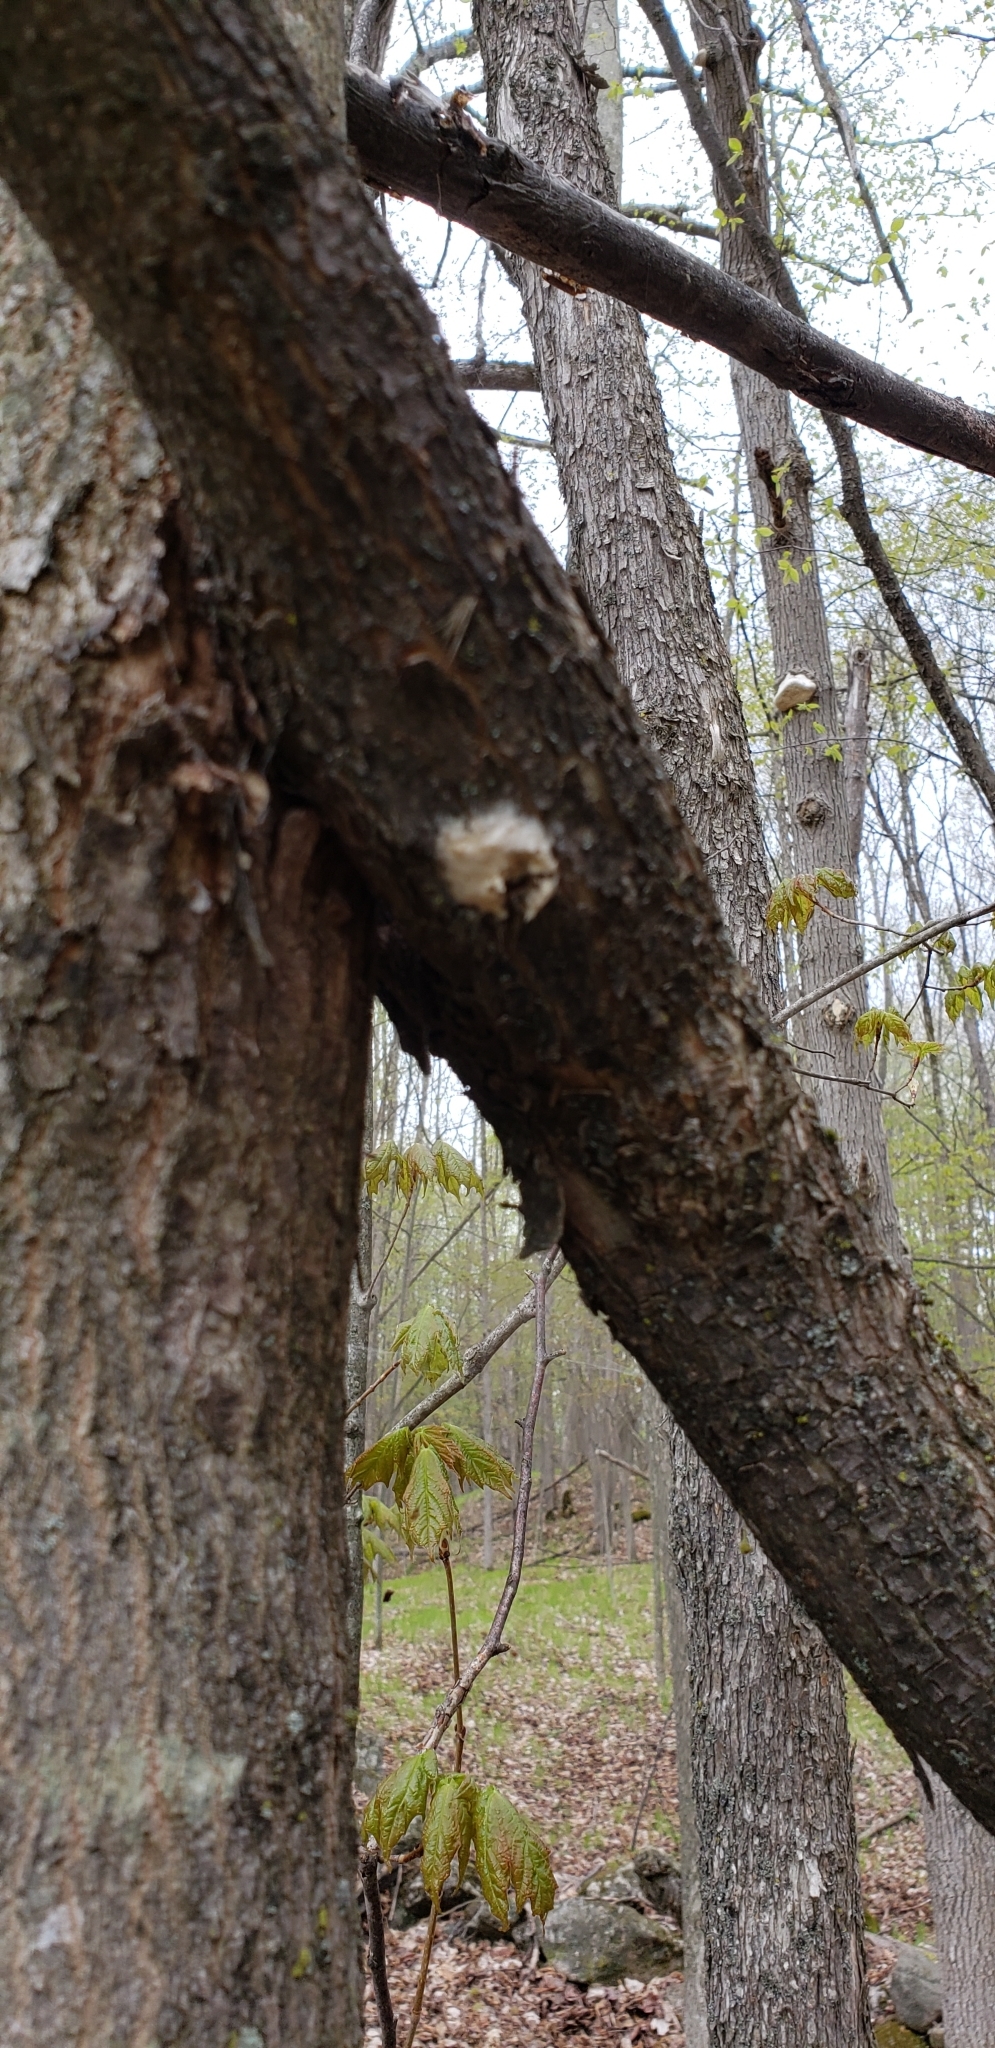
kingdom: Animalia
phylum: Arthropoda
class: Insecta
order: Lepidoptera
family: Erebidae
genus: Lymantria
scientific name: Lymantria dispar
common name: Gypsy moth
